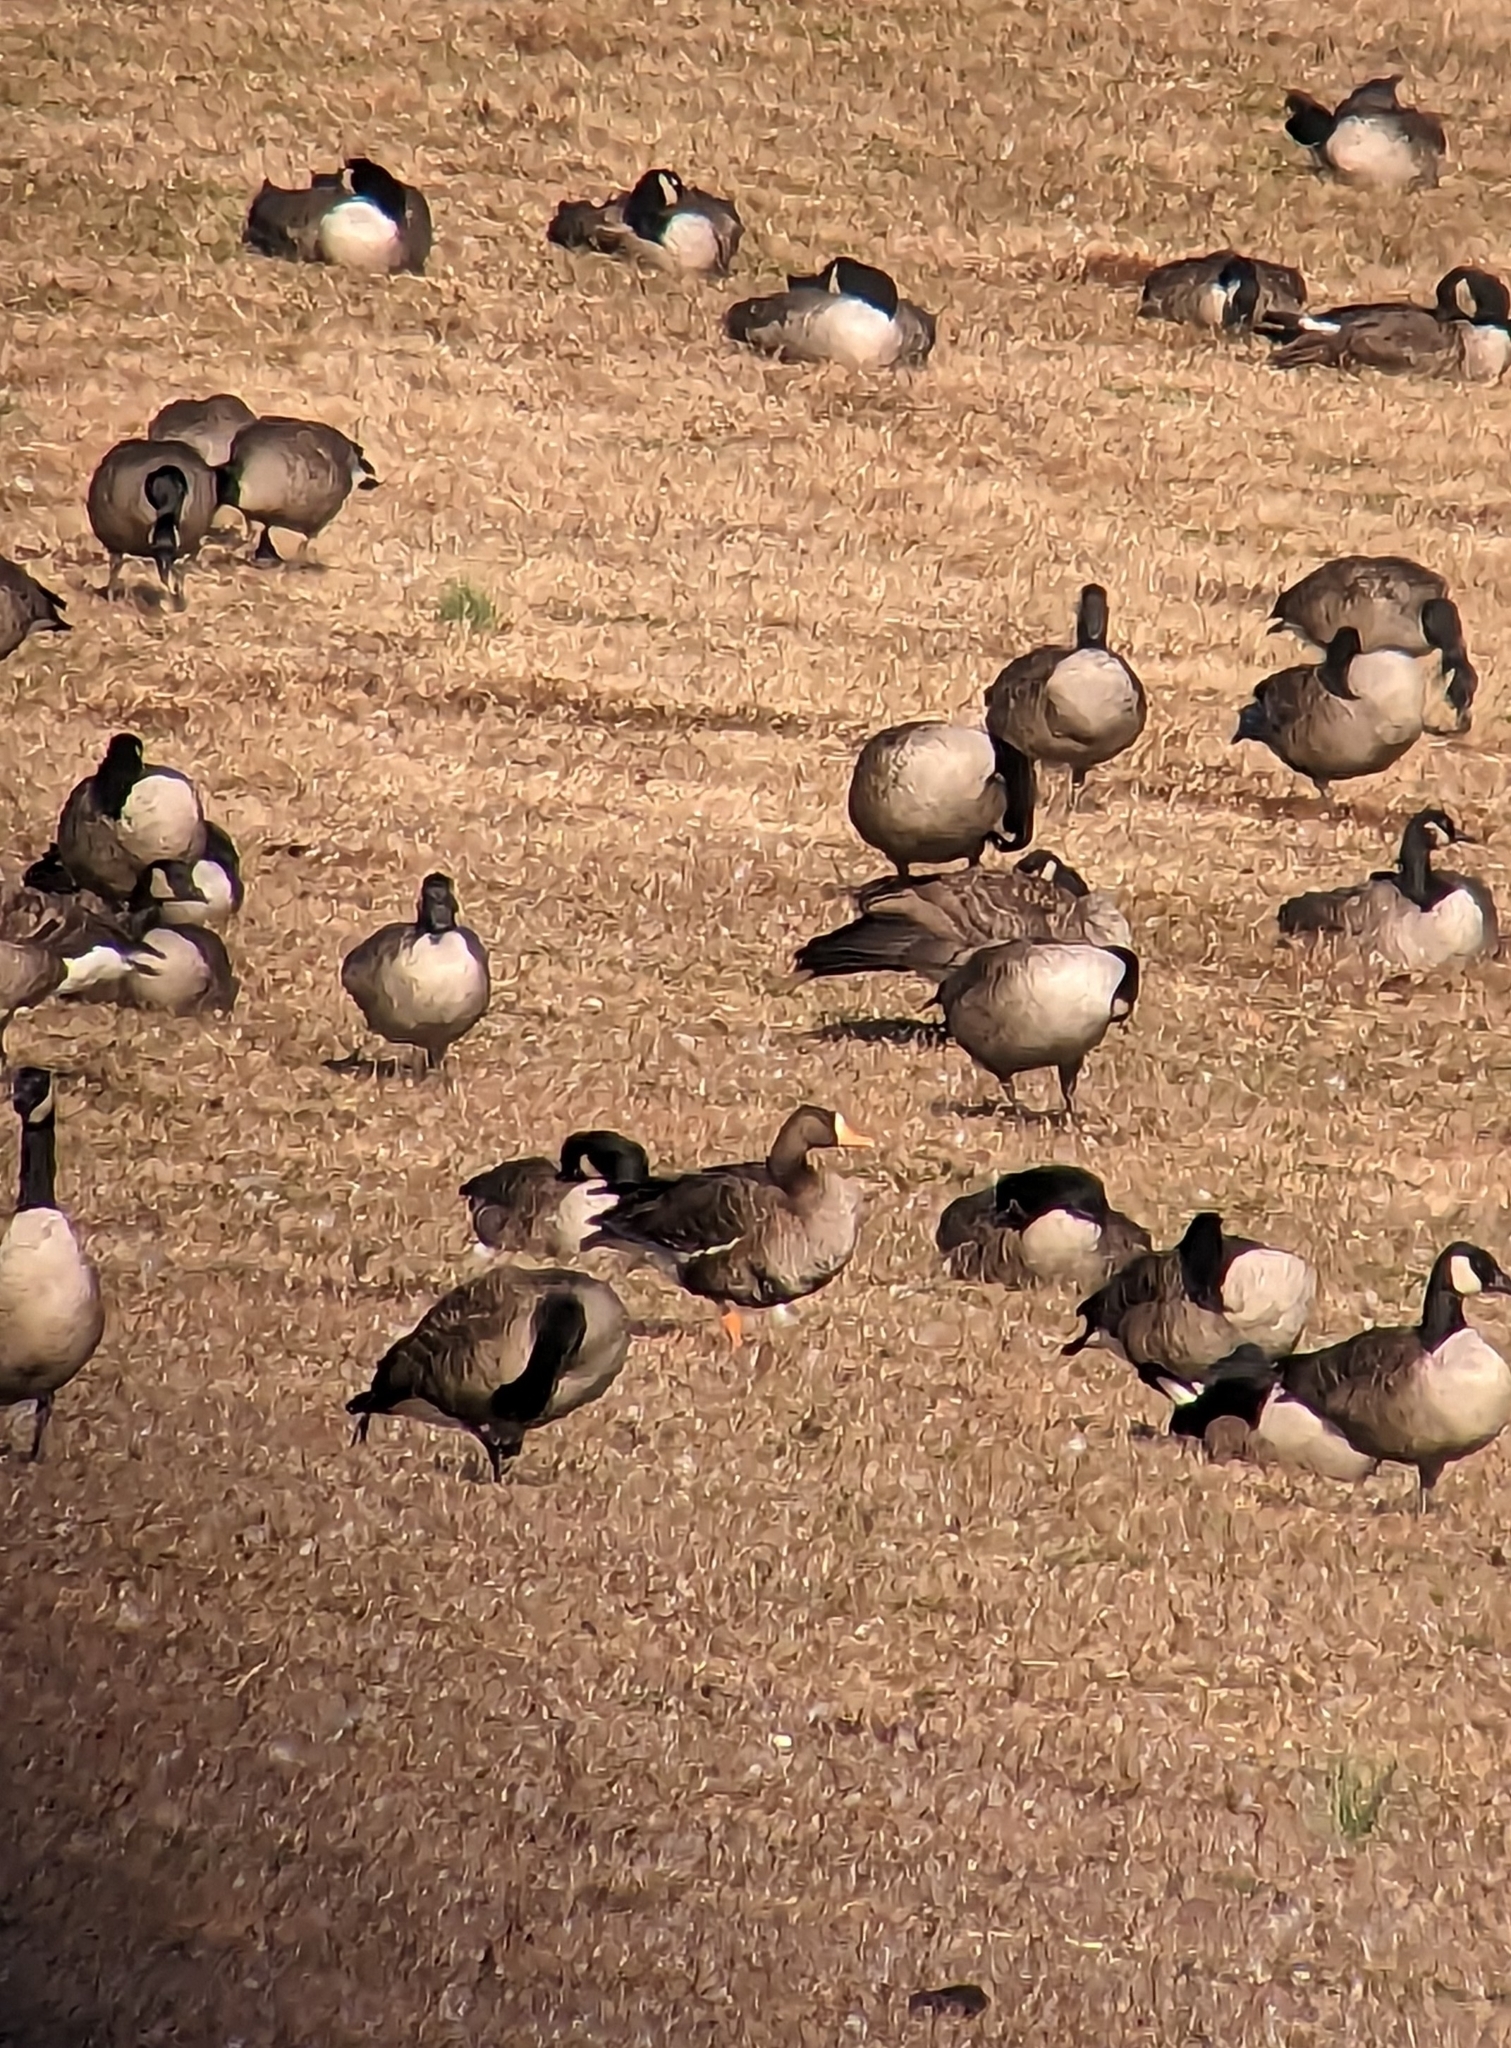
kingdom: Animalia
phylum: Chordata
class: Aves
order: Anseriformes
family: Anatidae
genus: Anser
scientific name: Anser albifrons
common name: Greater white-fronted goose
